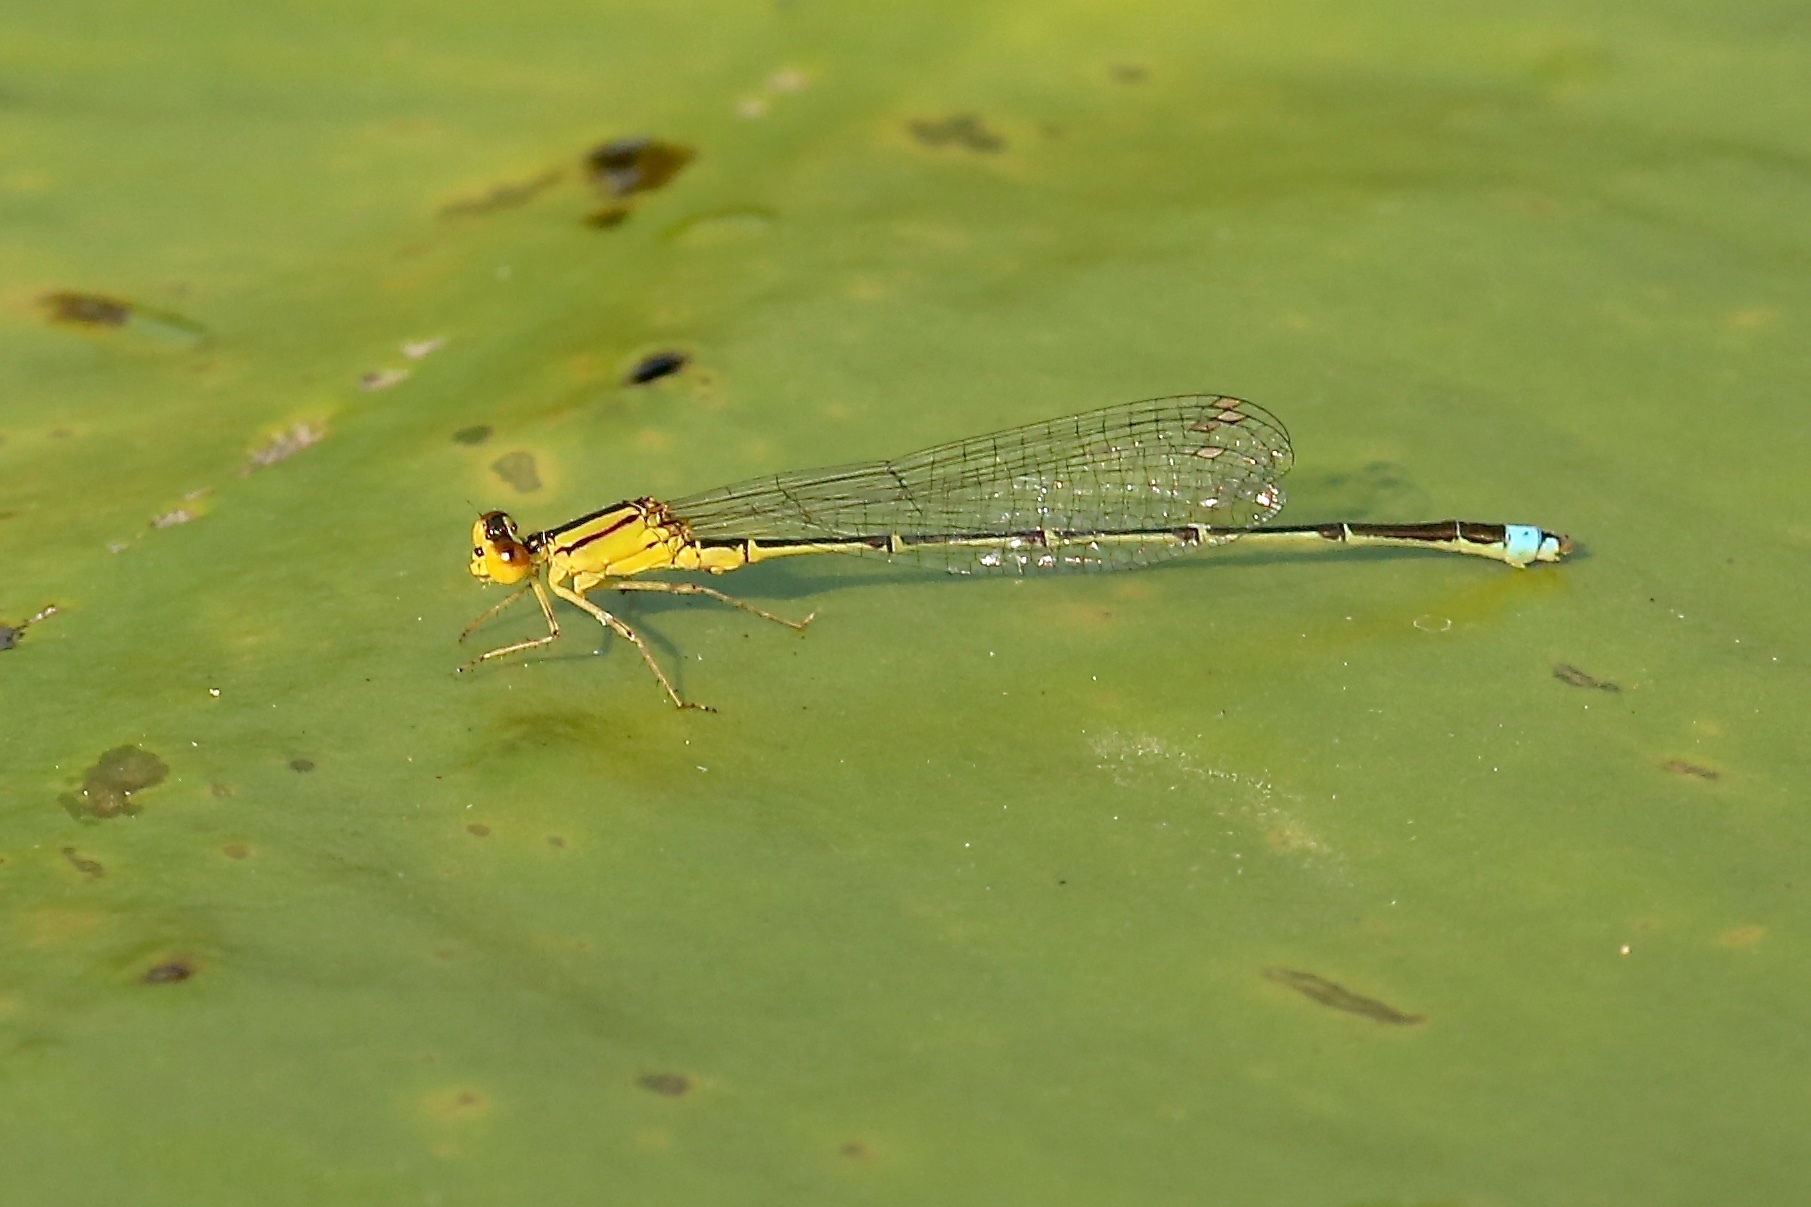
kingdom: Animalia
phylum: Arthropoda
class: Insecta
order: Odonata
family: Coenagrionidae
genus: Enallagma
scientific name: Enallagma vesperum
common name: Vesper bluet
